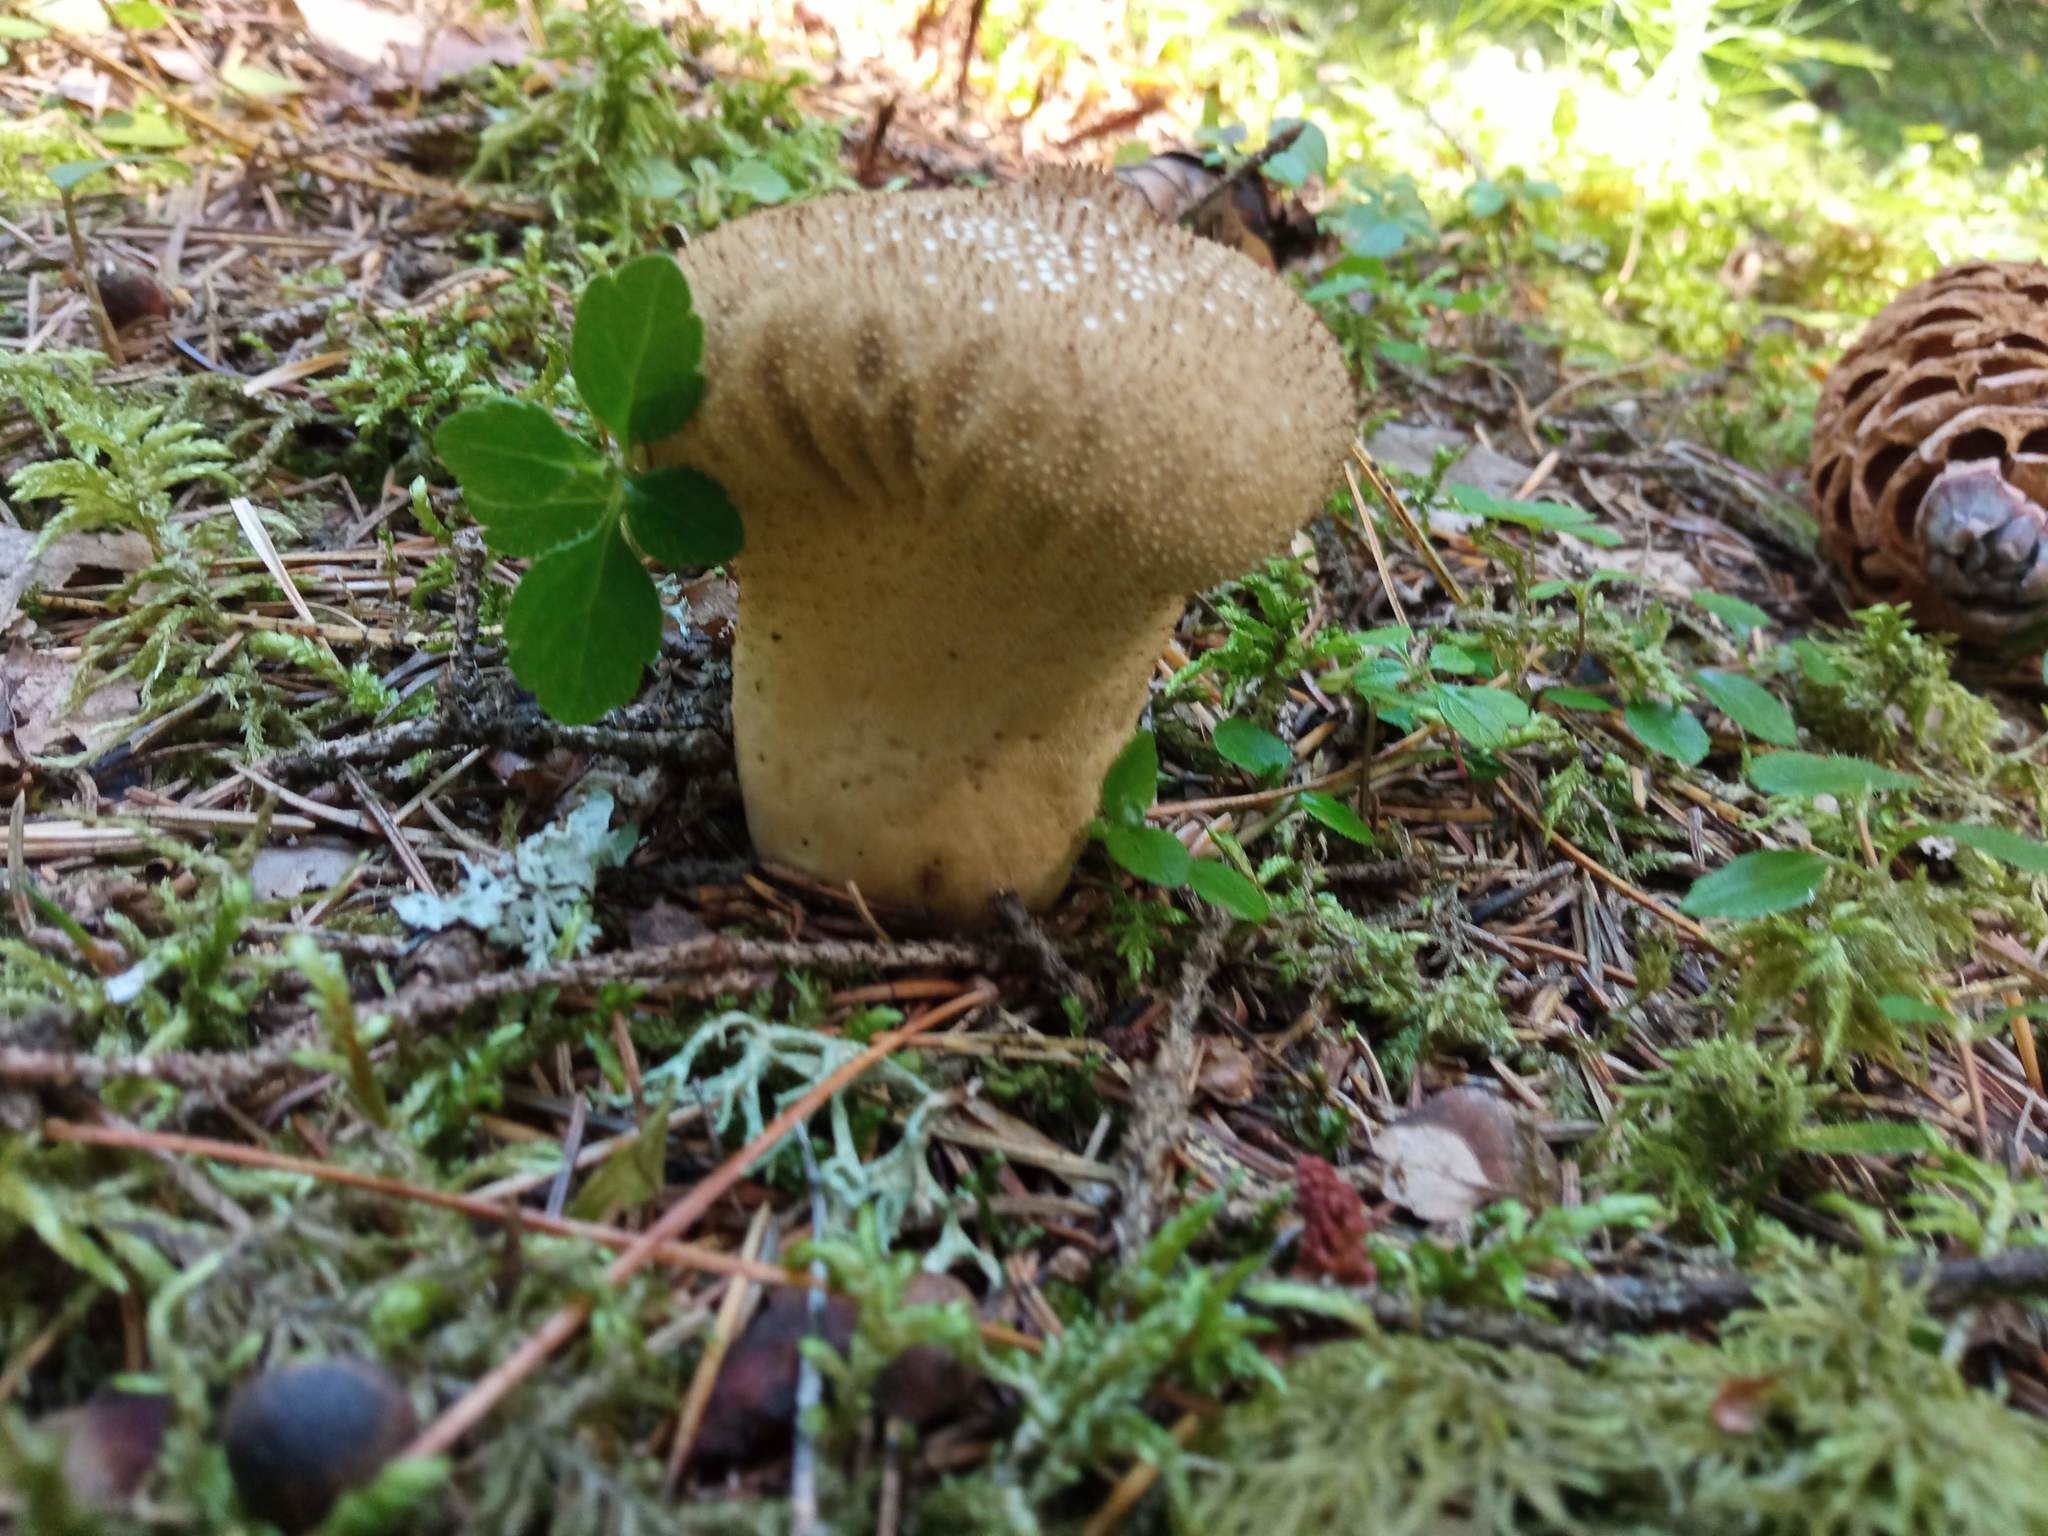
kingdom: Fungi
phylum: Basidiomycota
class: Agaricomycetes
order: Agaricales
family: Lycoperdaceae
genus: Lycoperdon
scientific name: Lycoperdon perlatum
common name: Common puffball
